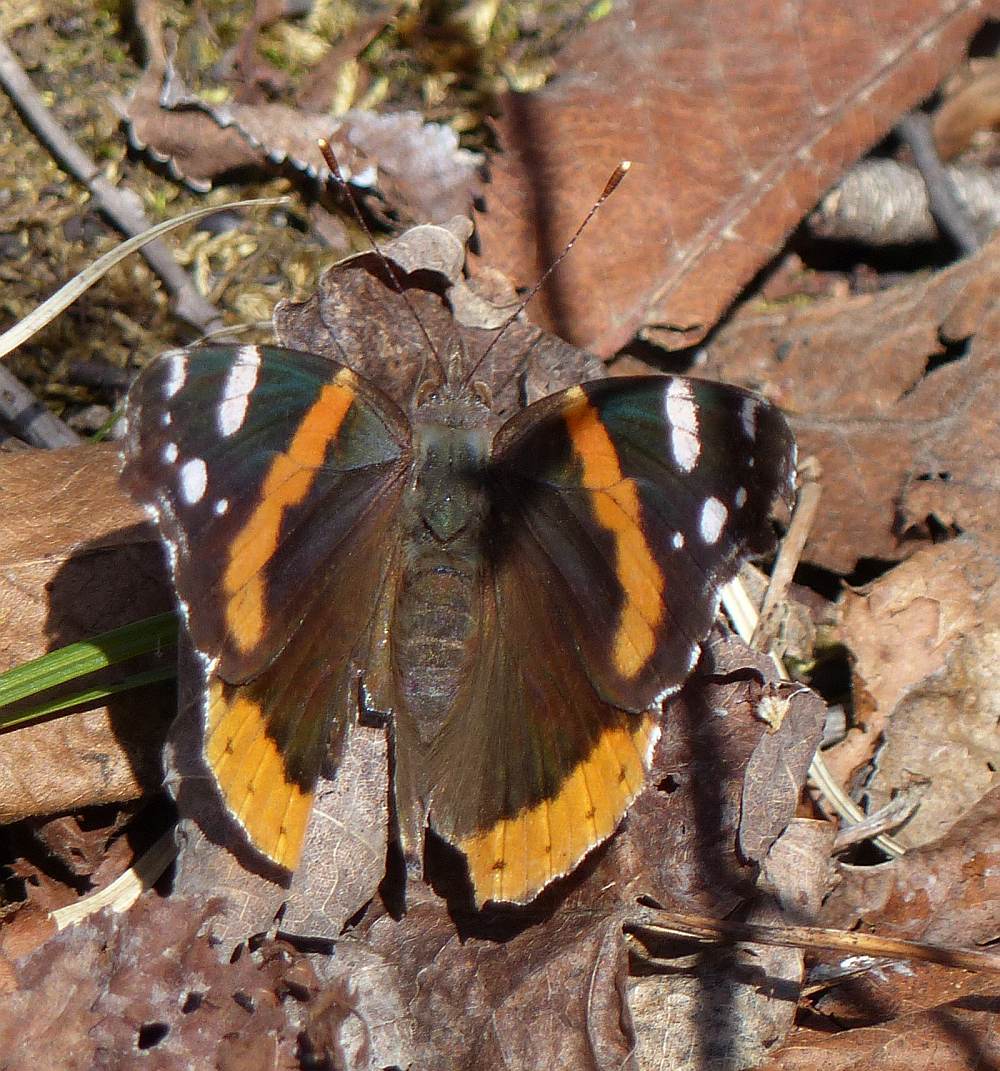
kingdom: Animalia
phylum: Arthropoda
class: Insecta
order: Lepidoptera
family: Nymphalidae
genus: Vanessa
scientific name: Vanessa atalanta
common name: Red admiral
